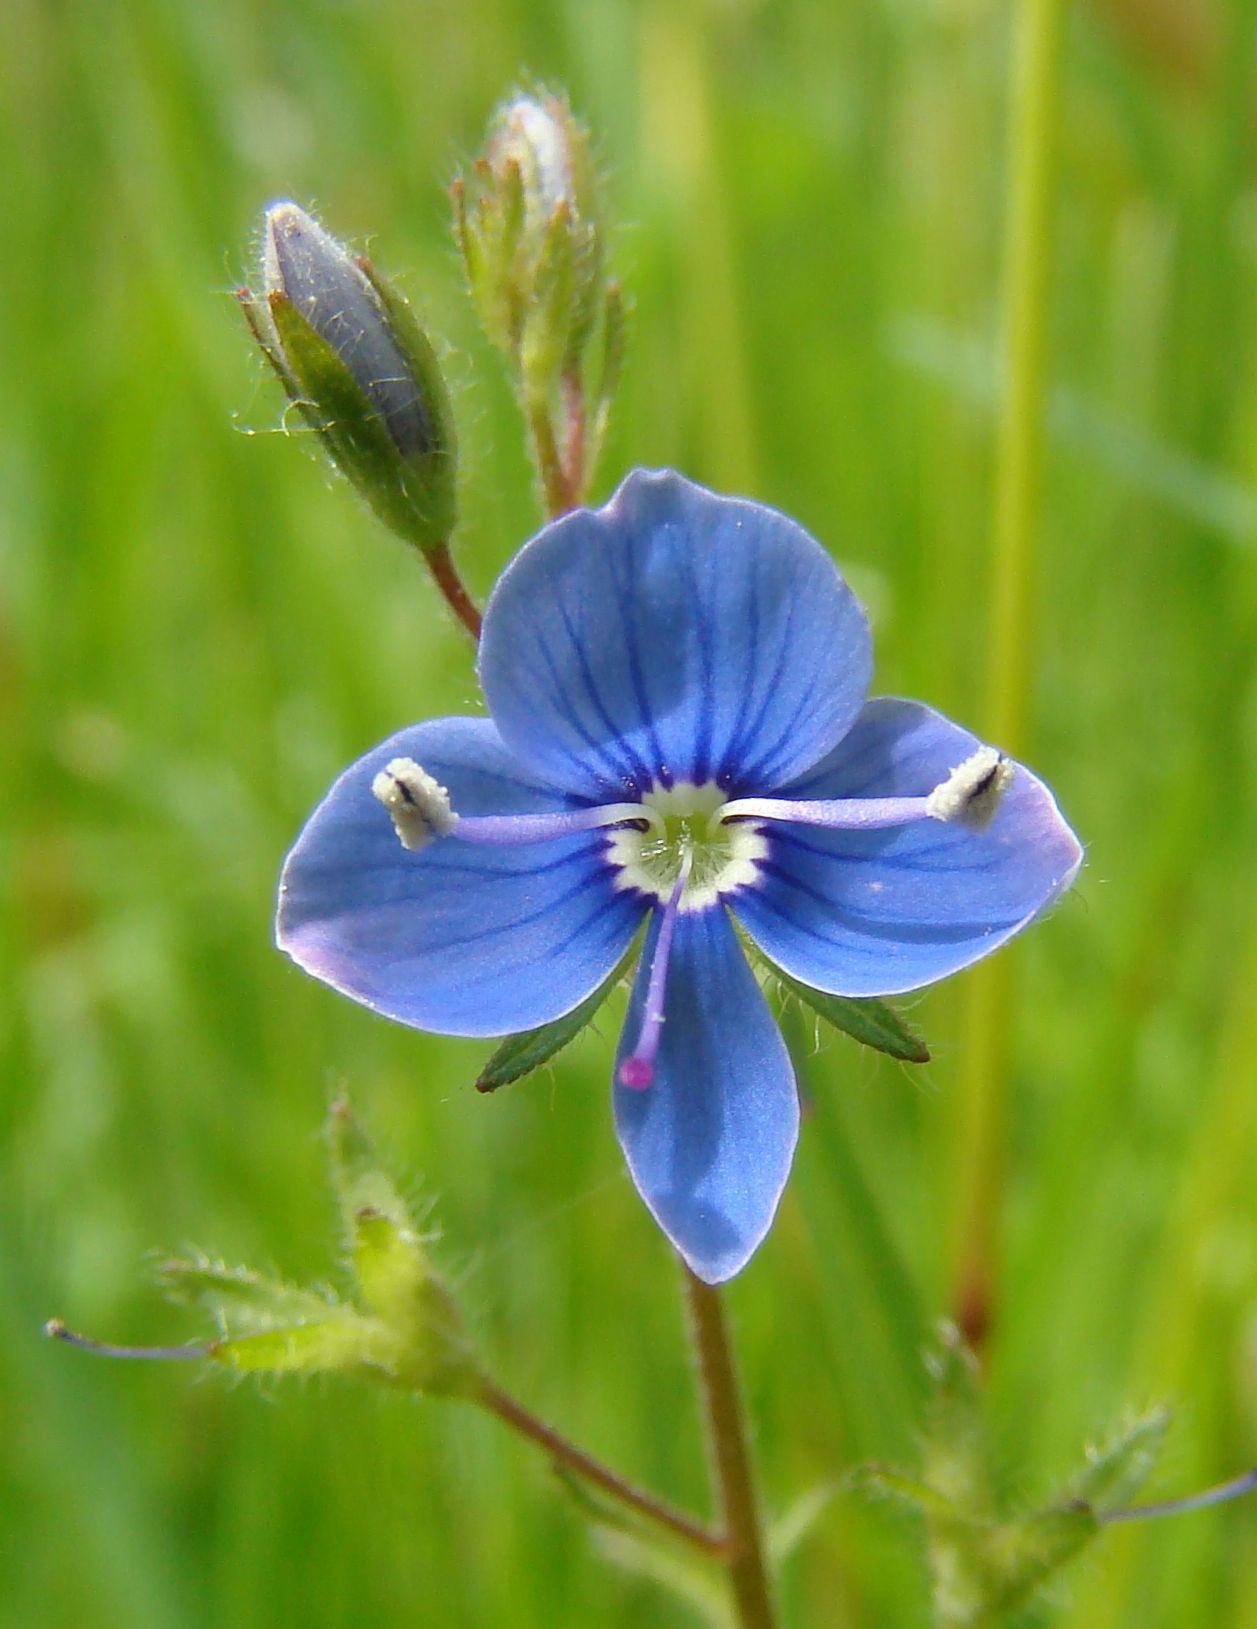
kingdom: Plantae
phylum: Tracheophyta
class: Magnoliopsida
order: Lamiales
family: Plantaginaceae
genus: Veronica
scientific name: Veronica chamaedrys
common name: Germander speedwell
